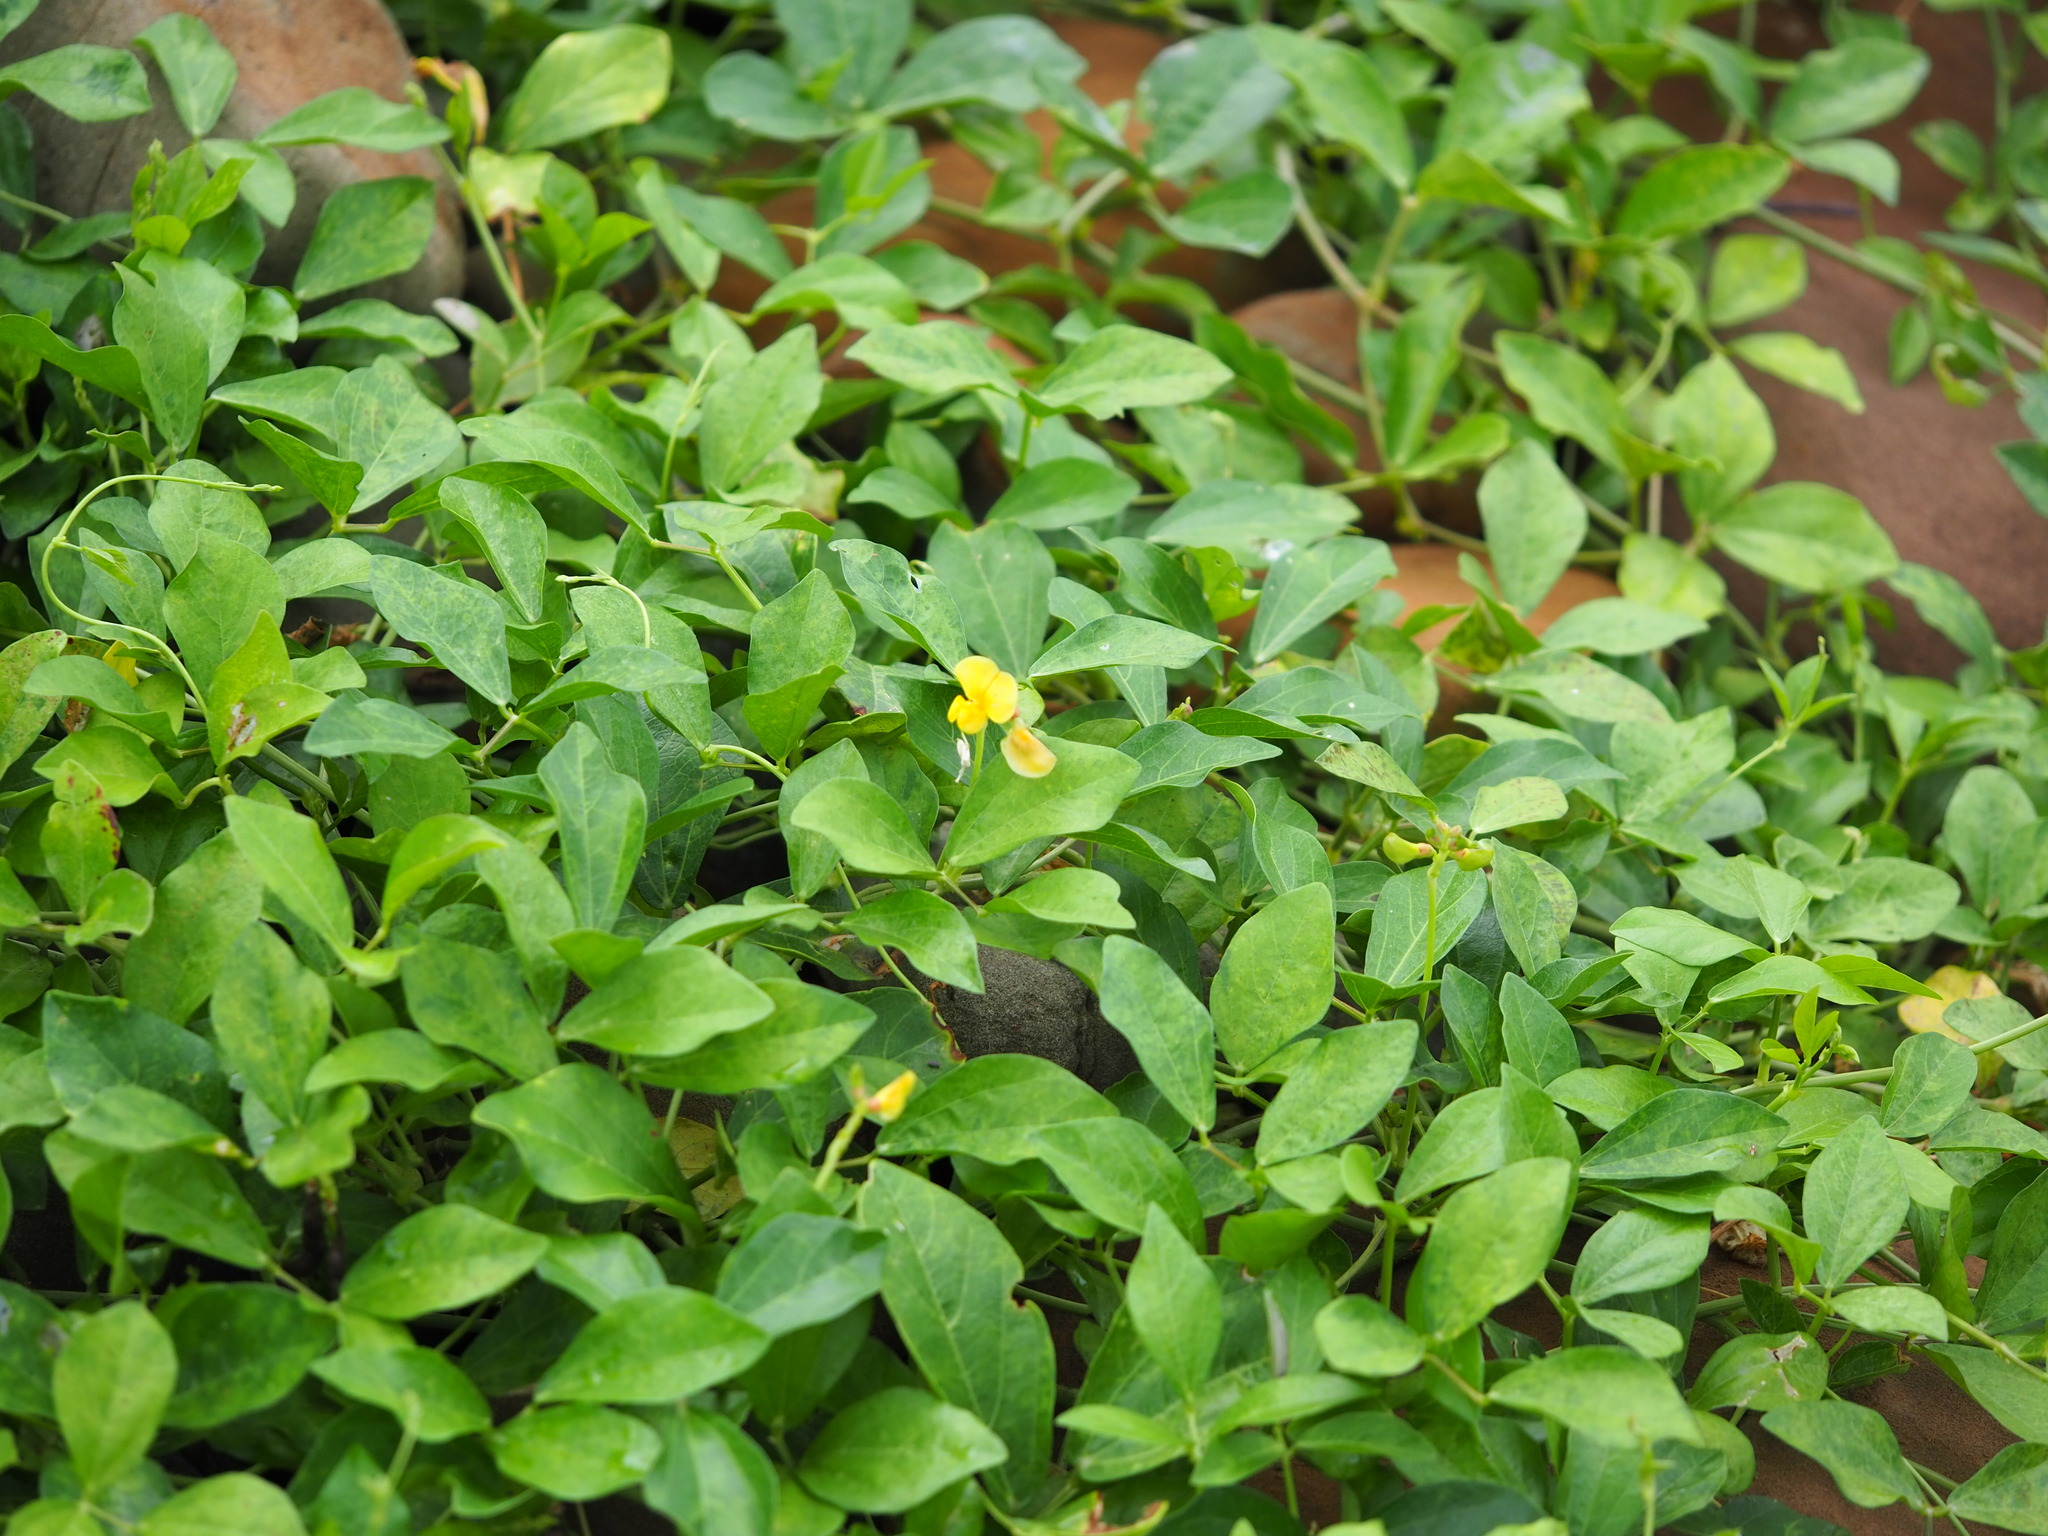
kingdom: Plantae
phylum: Tracheophyta
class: Magnoliopsida
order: Fabales
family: Fabaceae
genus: Vigna
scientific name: Vigna marina
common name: Dune-bean
